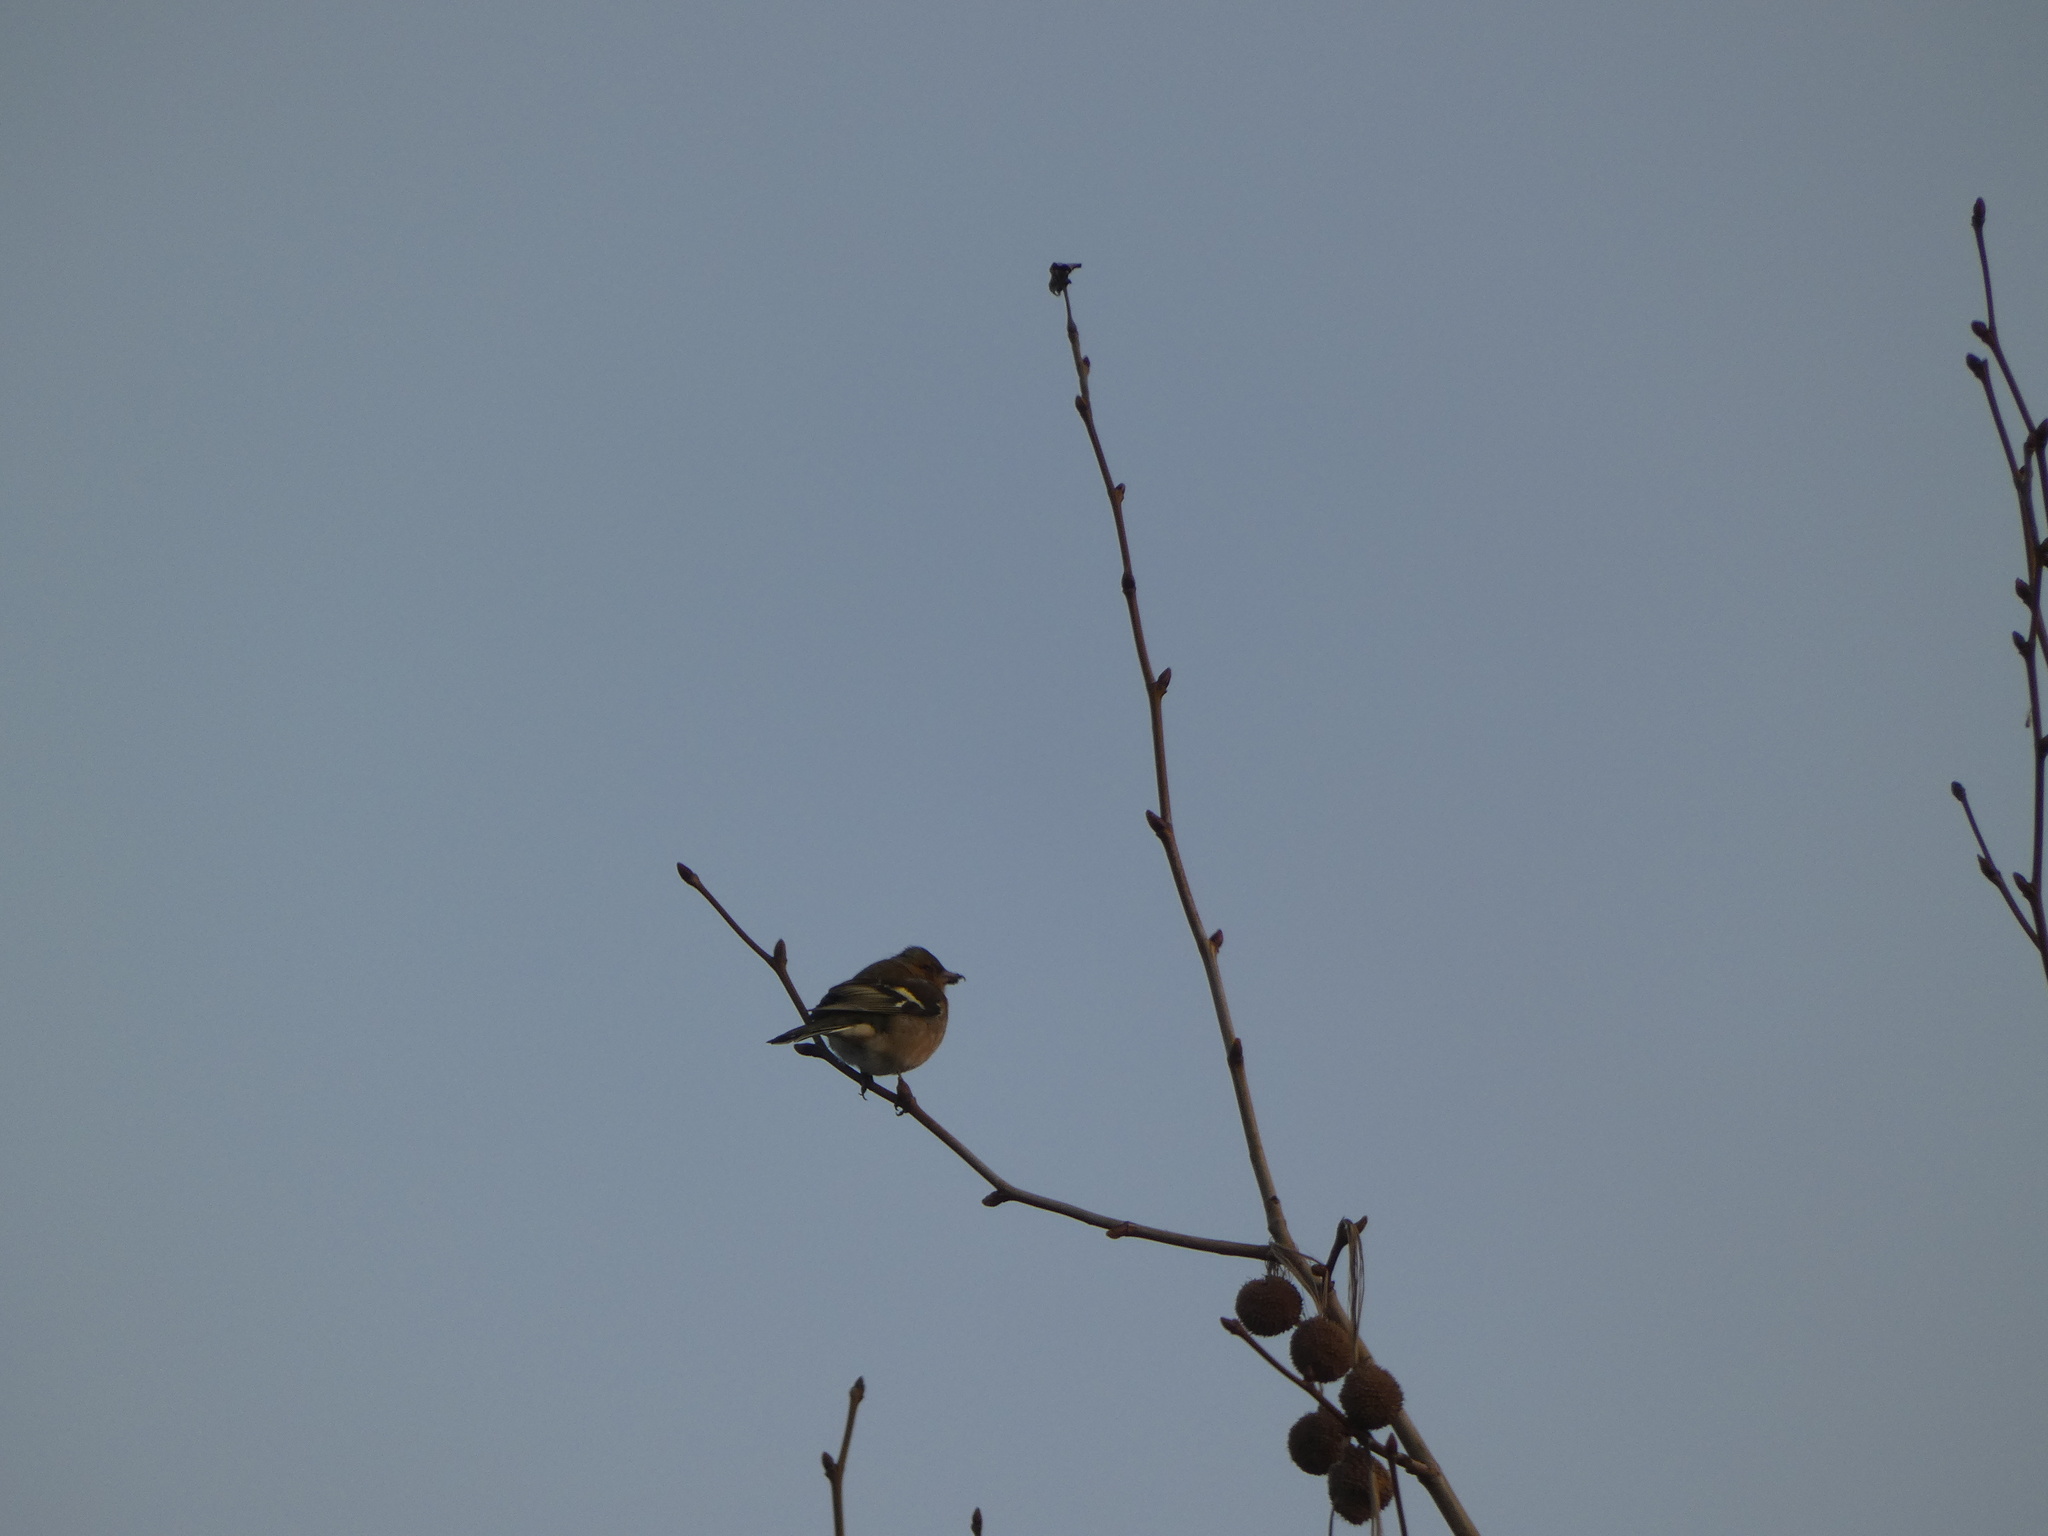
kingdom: Animalia
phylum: Chordata
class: Aves
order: Passeriformes
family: Fringillidae
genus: Fringilla
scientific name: Fringilla coelebs
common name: Common chaffinch
